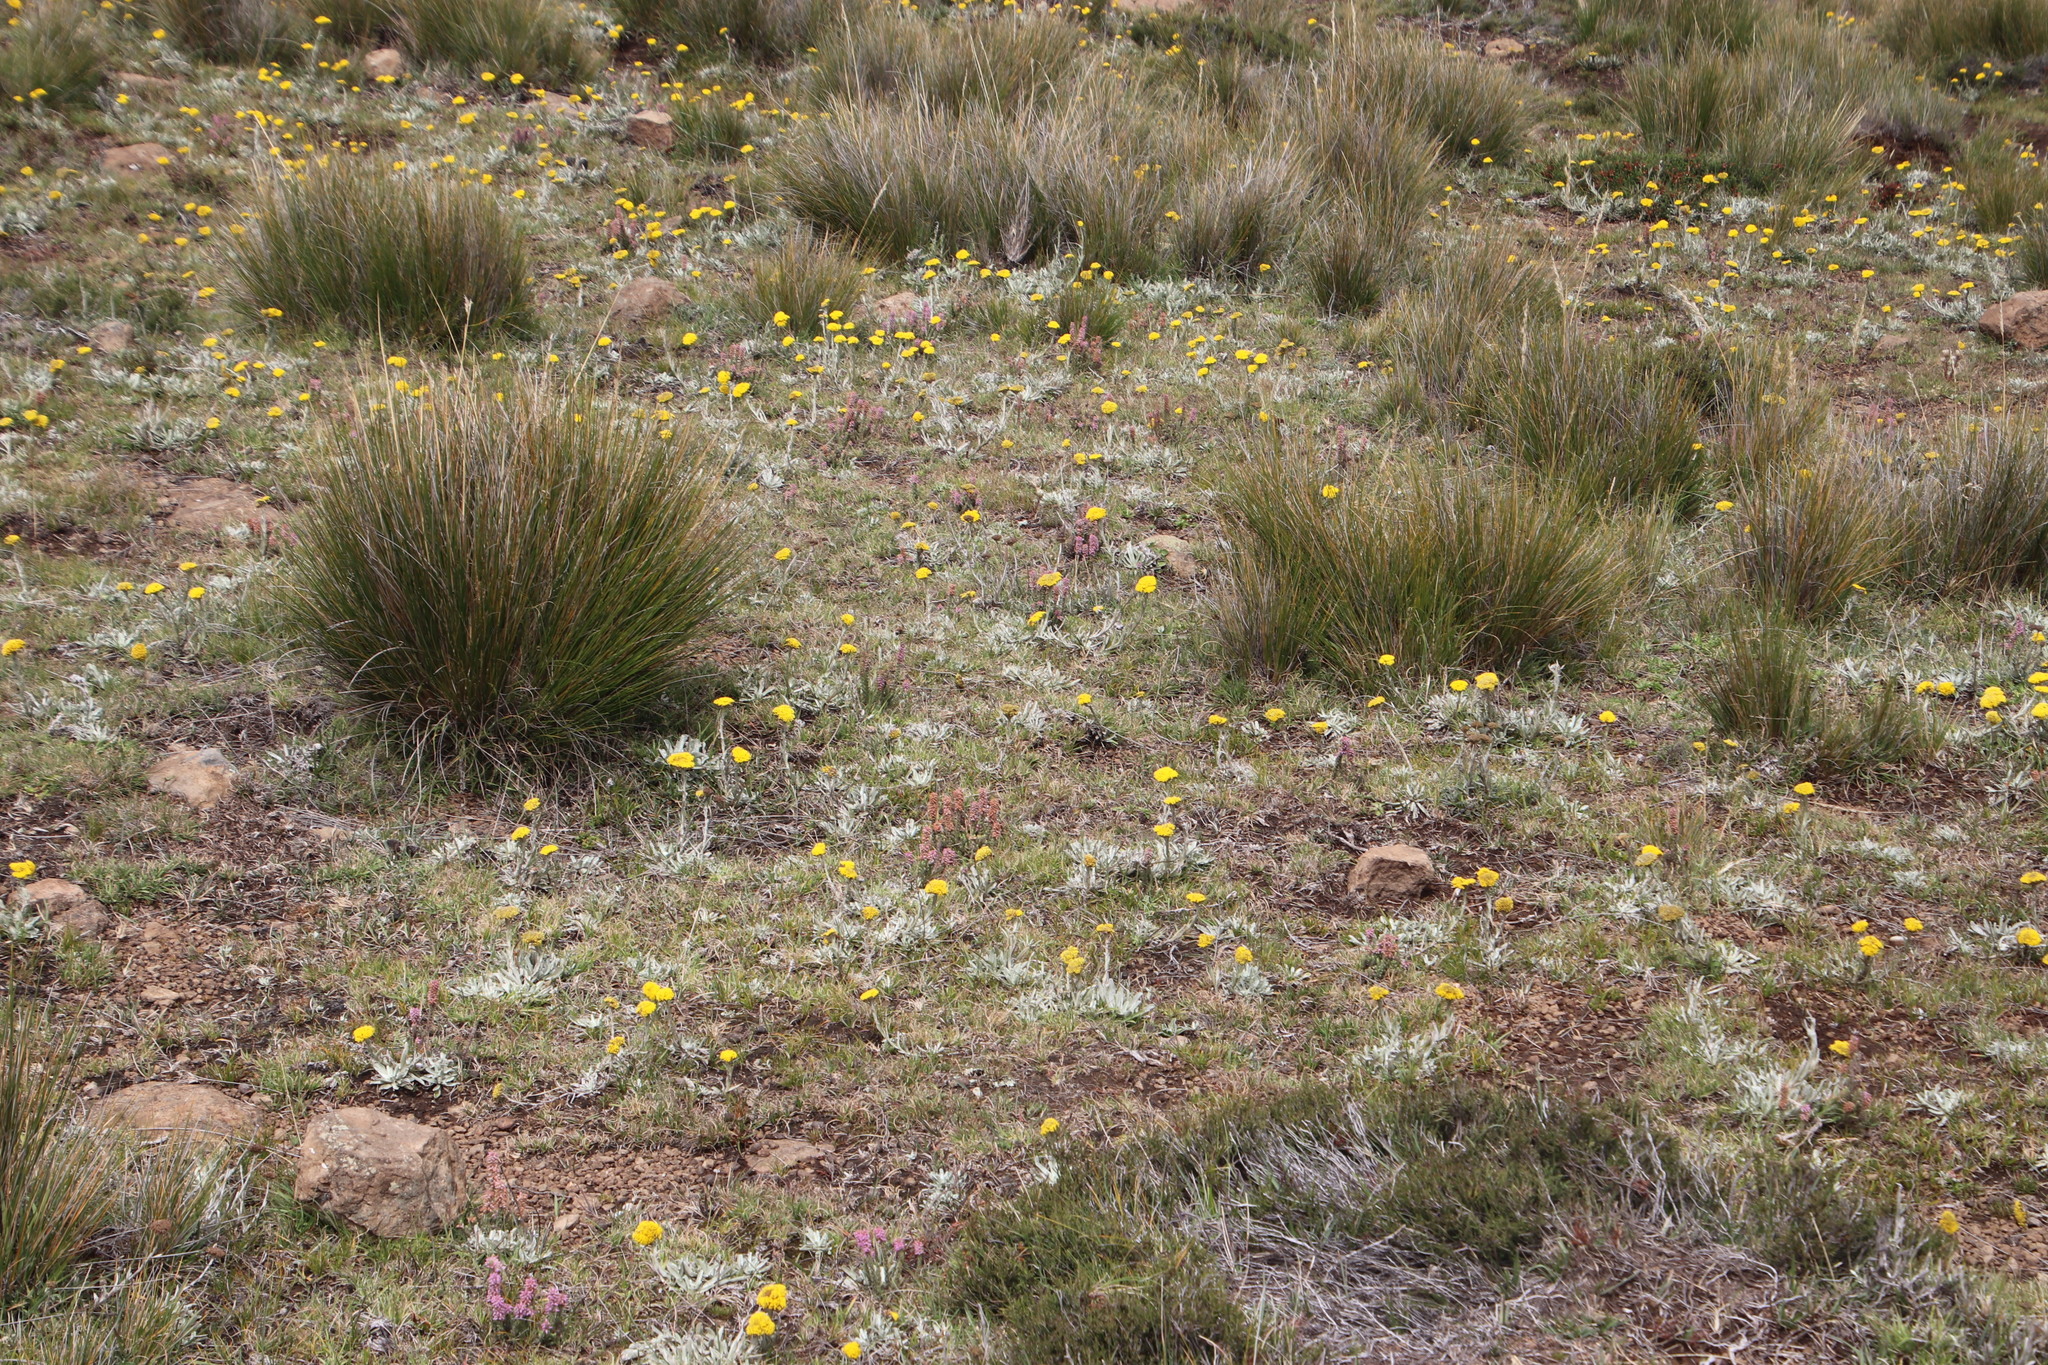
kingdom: Plantae
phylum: Tracheophyta
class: Magnoliopsida
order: Ericales
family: Ericaceae
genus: Erica
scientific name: Erica alopecurus
